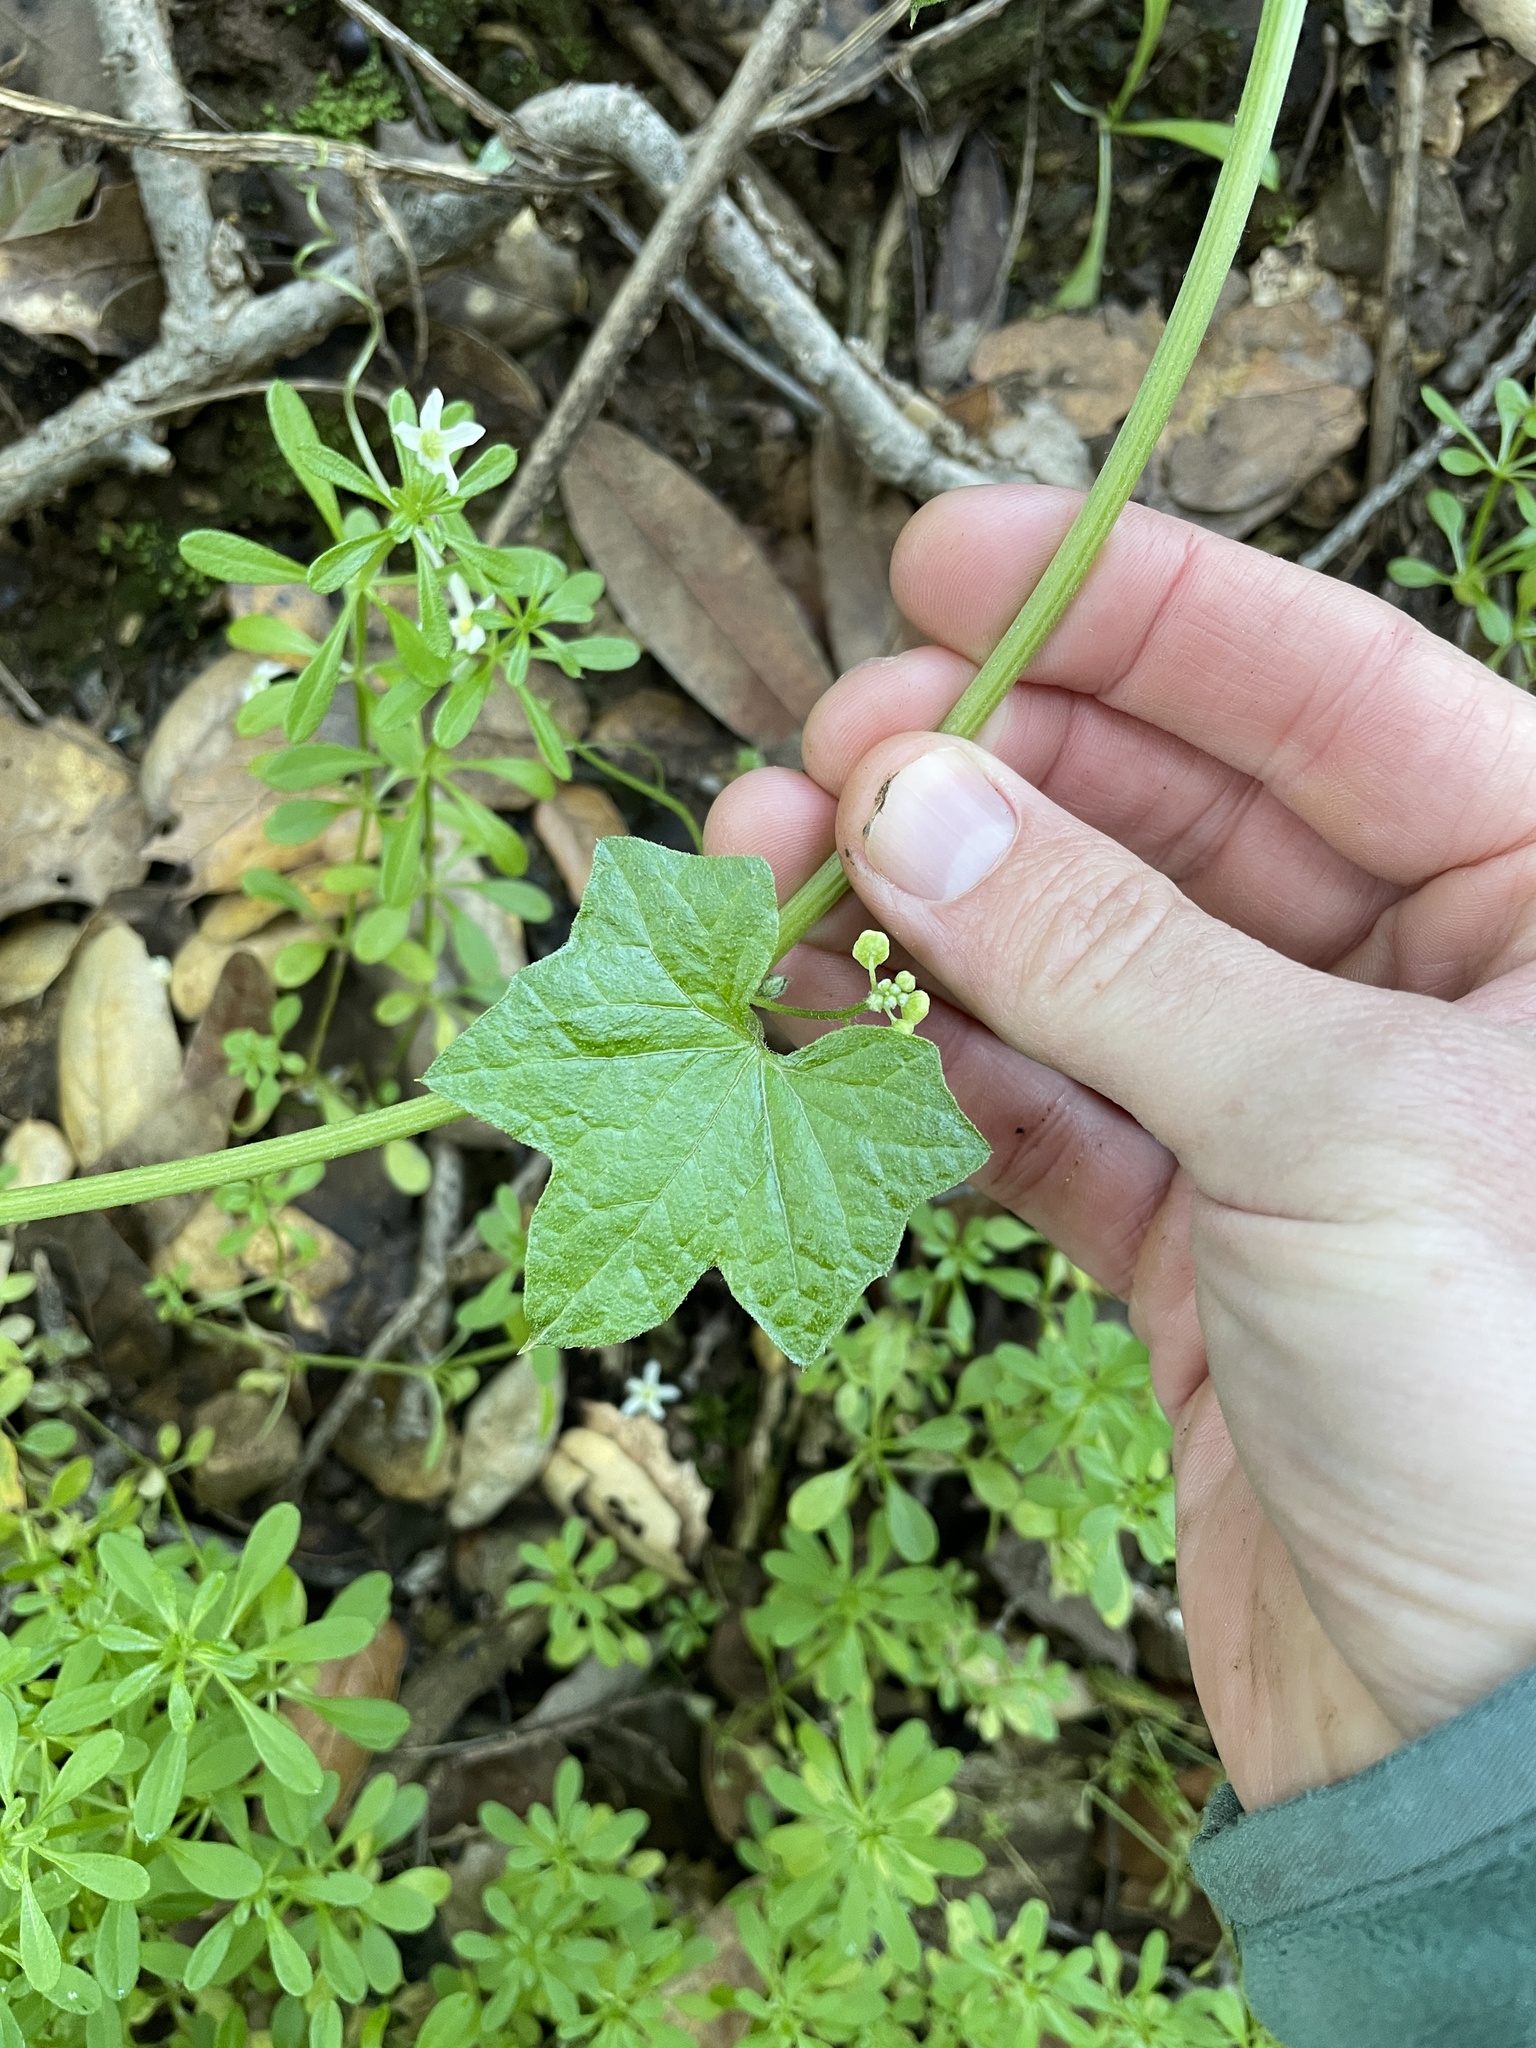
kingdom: Plantae
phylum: Tracheophyta
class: Magnoliopsida
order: Cucurbitales
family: Cucurbitaceae
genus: Marah
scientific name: Marah fabacea
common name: California manroot
